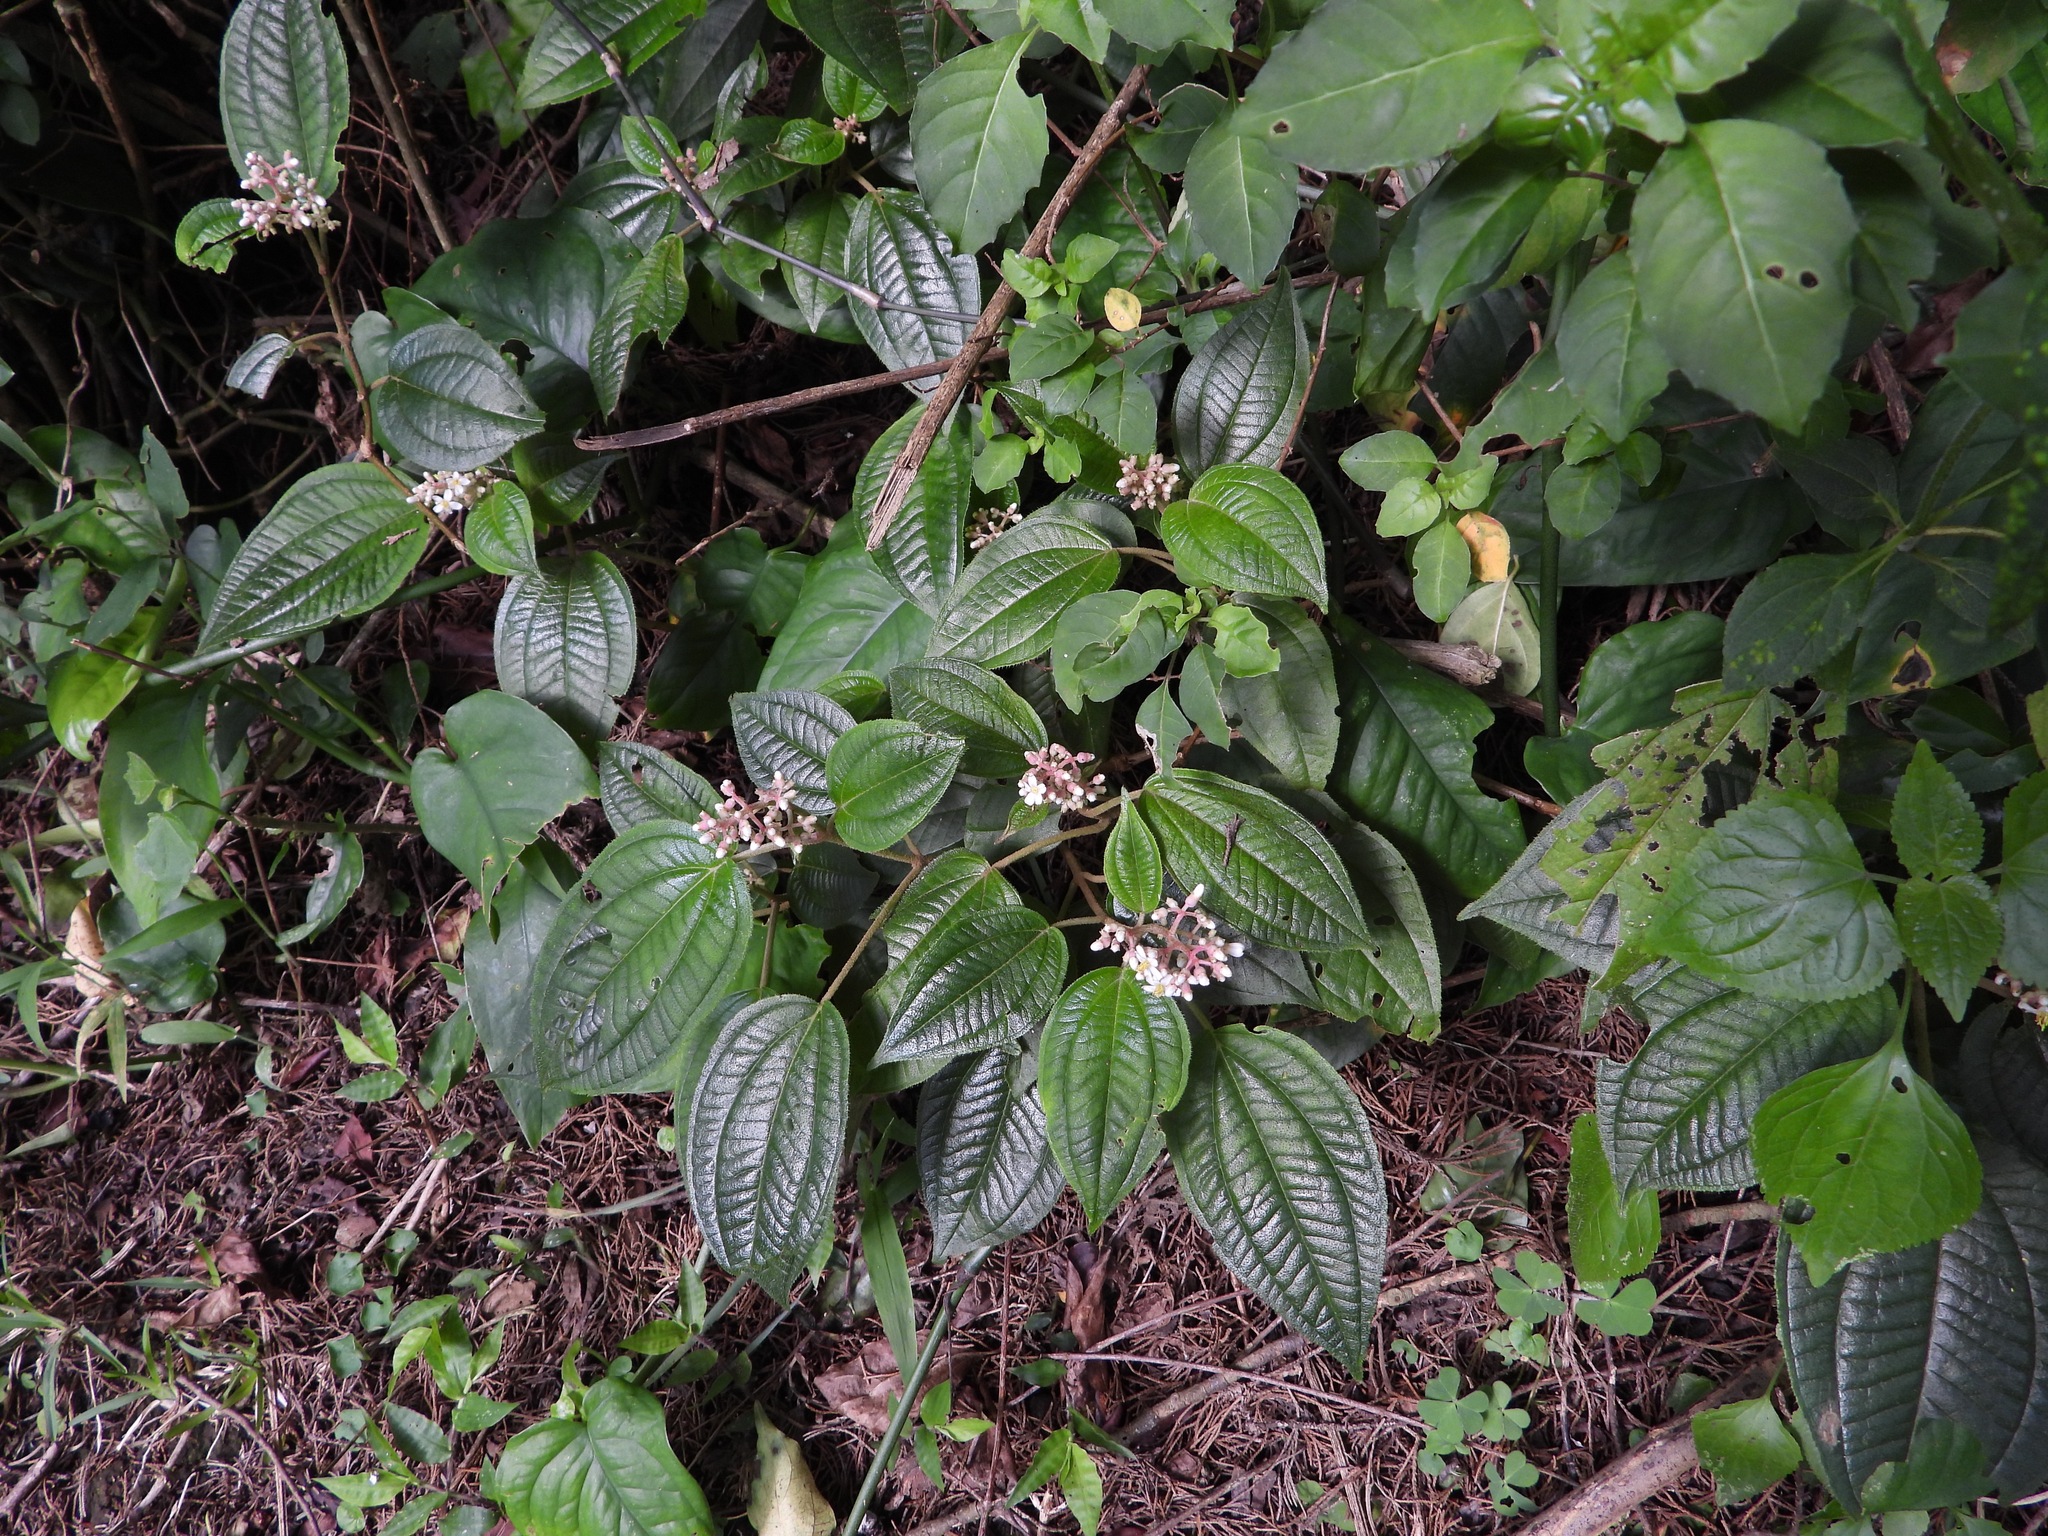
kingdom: Plantae
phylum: Tracheophyta
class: Magnoliopsida
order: Myrtales
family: Melastomataceae
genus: Miconia
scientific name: Miconia subseriata
